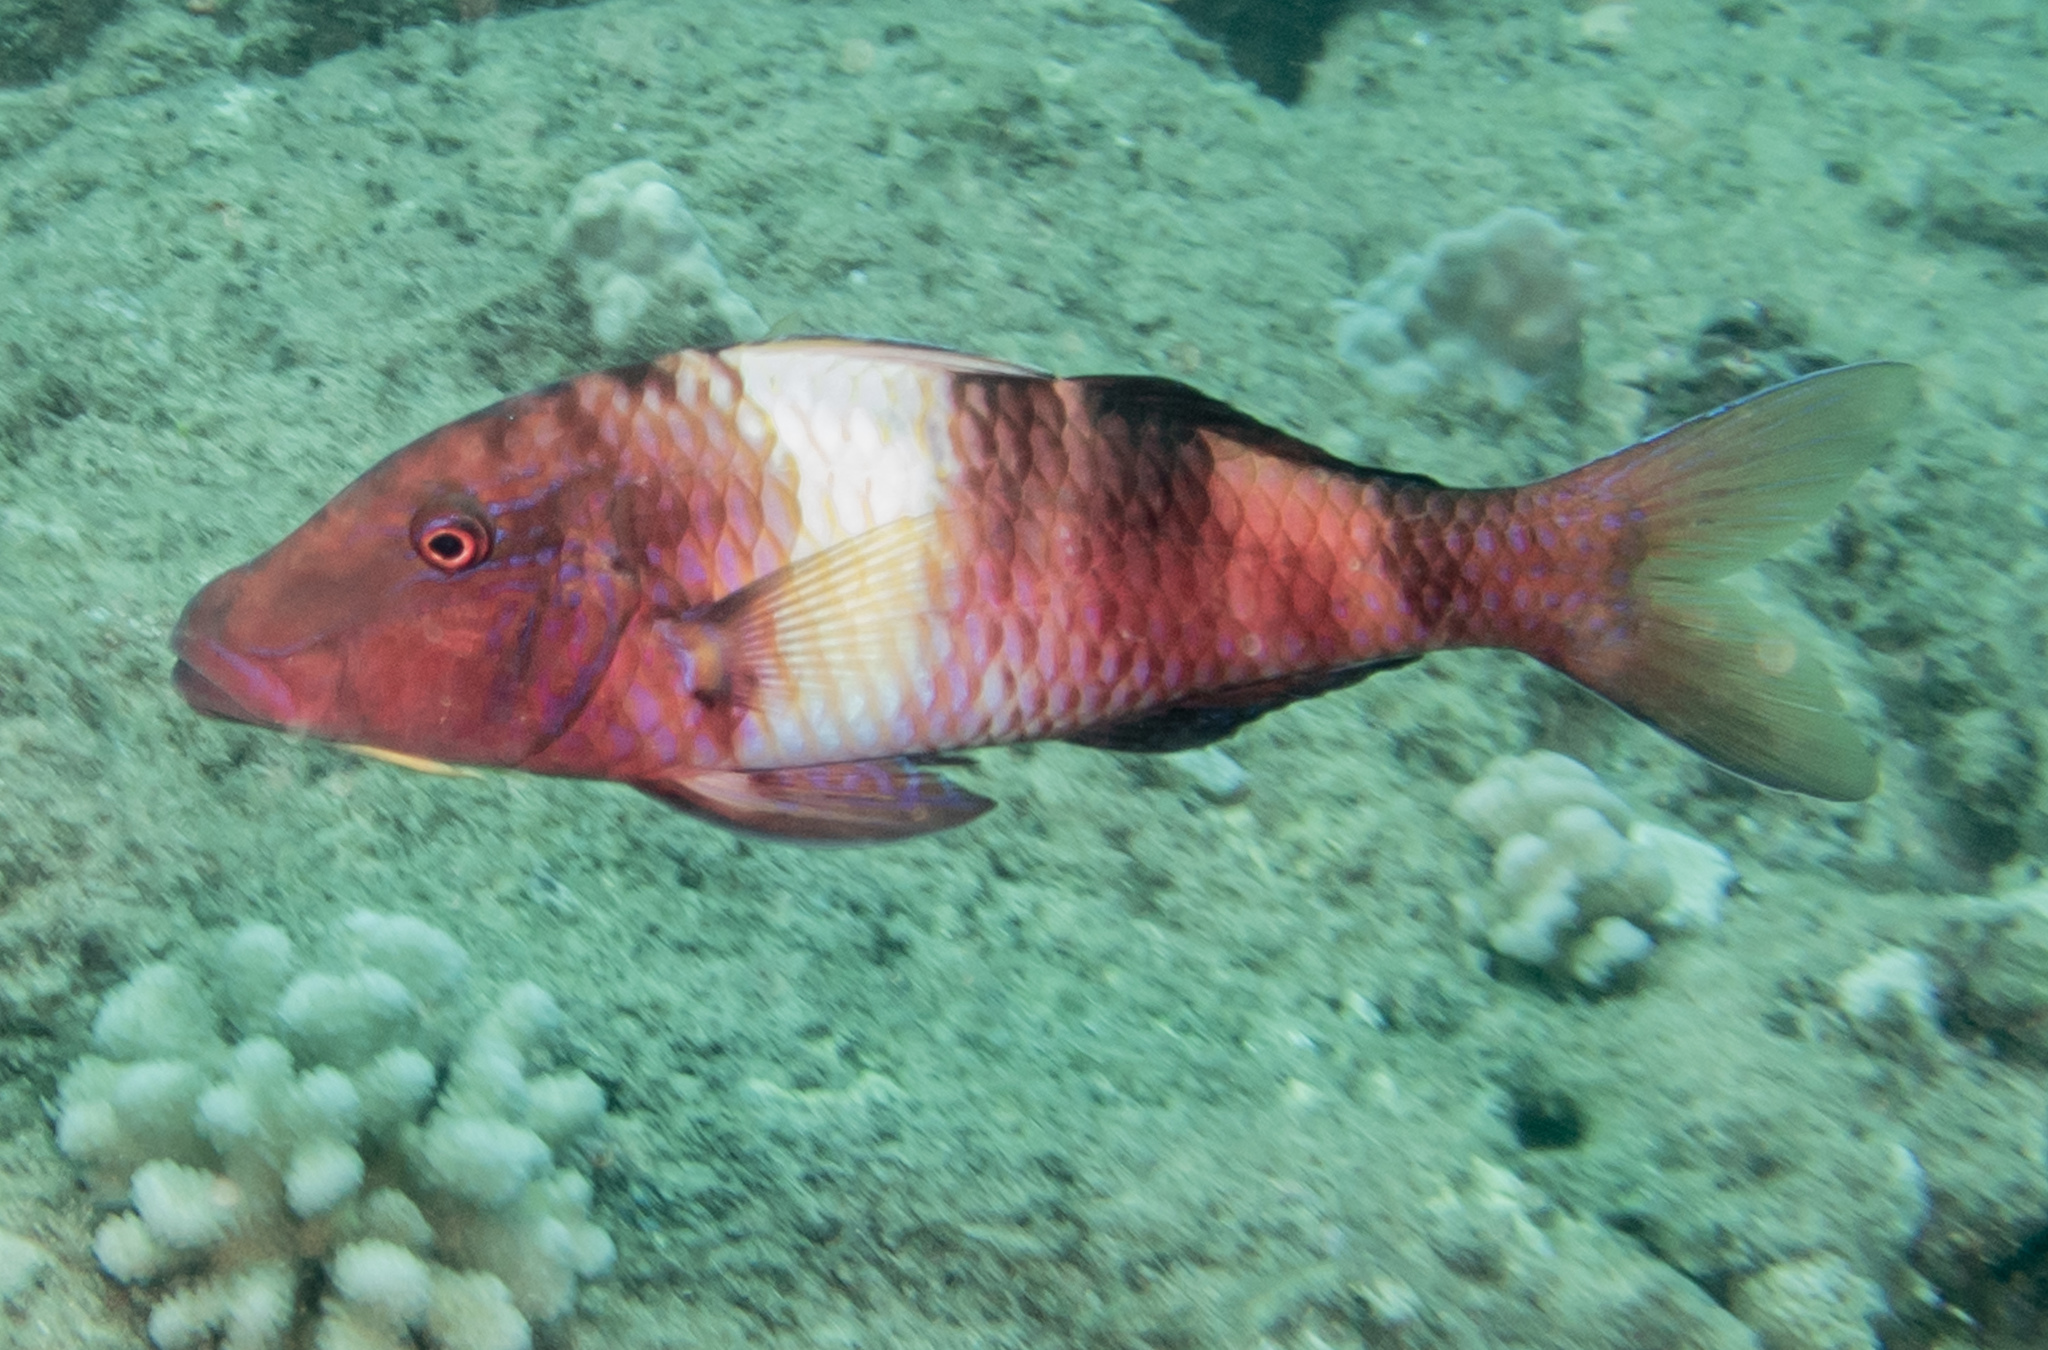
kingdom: Animalia
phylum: Chordata
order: Perciformes
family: Mullidae
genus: Parupeneus
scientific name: Parupeneus multifasciatus
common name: Manybar goatfish
